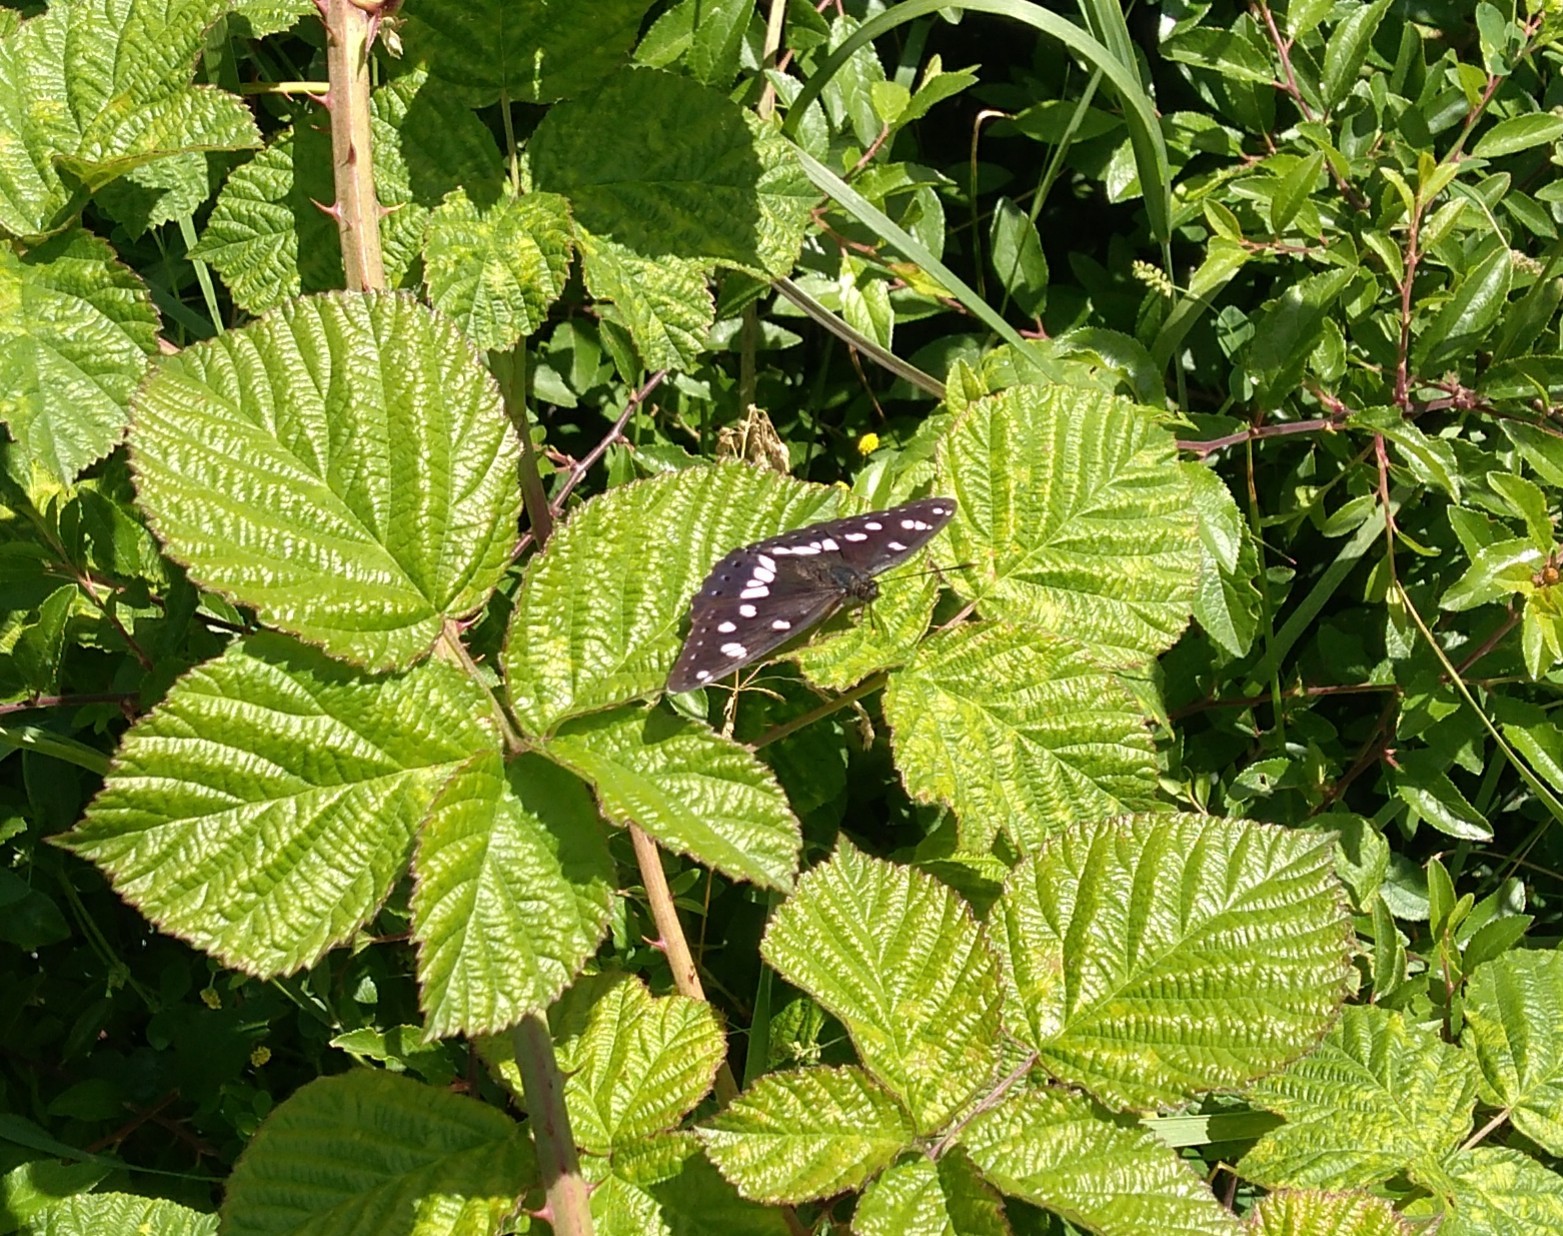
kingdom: Animalia
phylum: Arthropoda
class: Insecta
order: Lepidoptera
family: Nymphalidae
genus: Limenitis
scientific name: Limenitis reducta
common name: Southern white admiral
